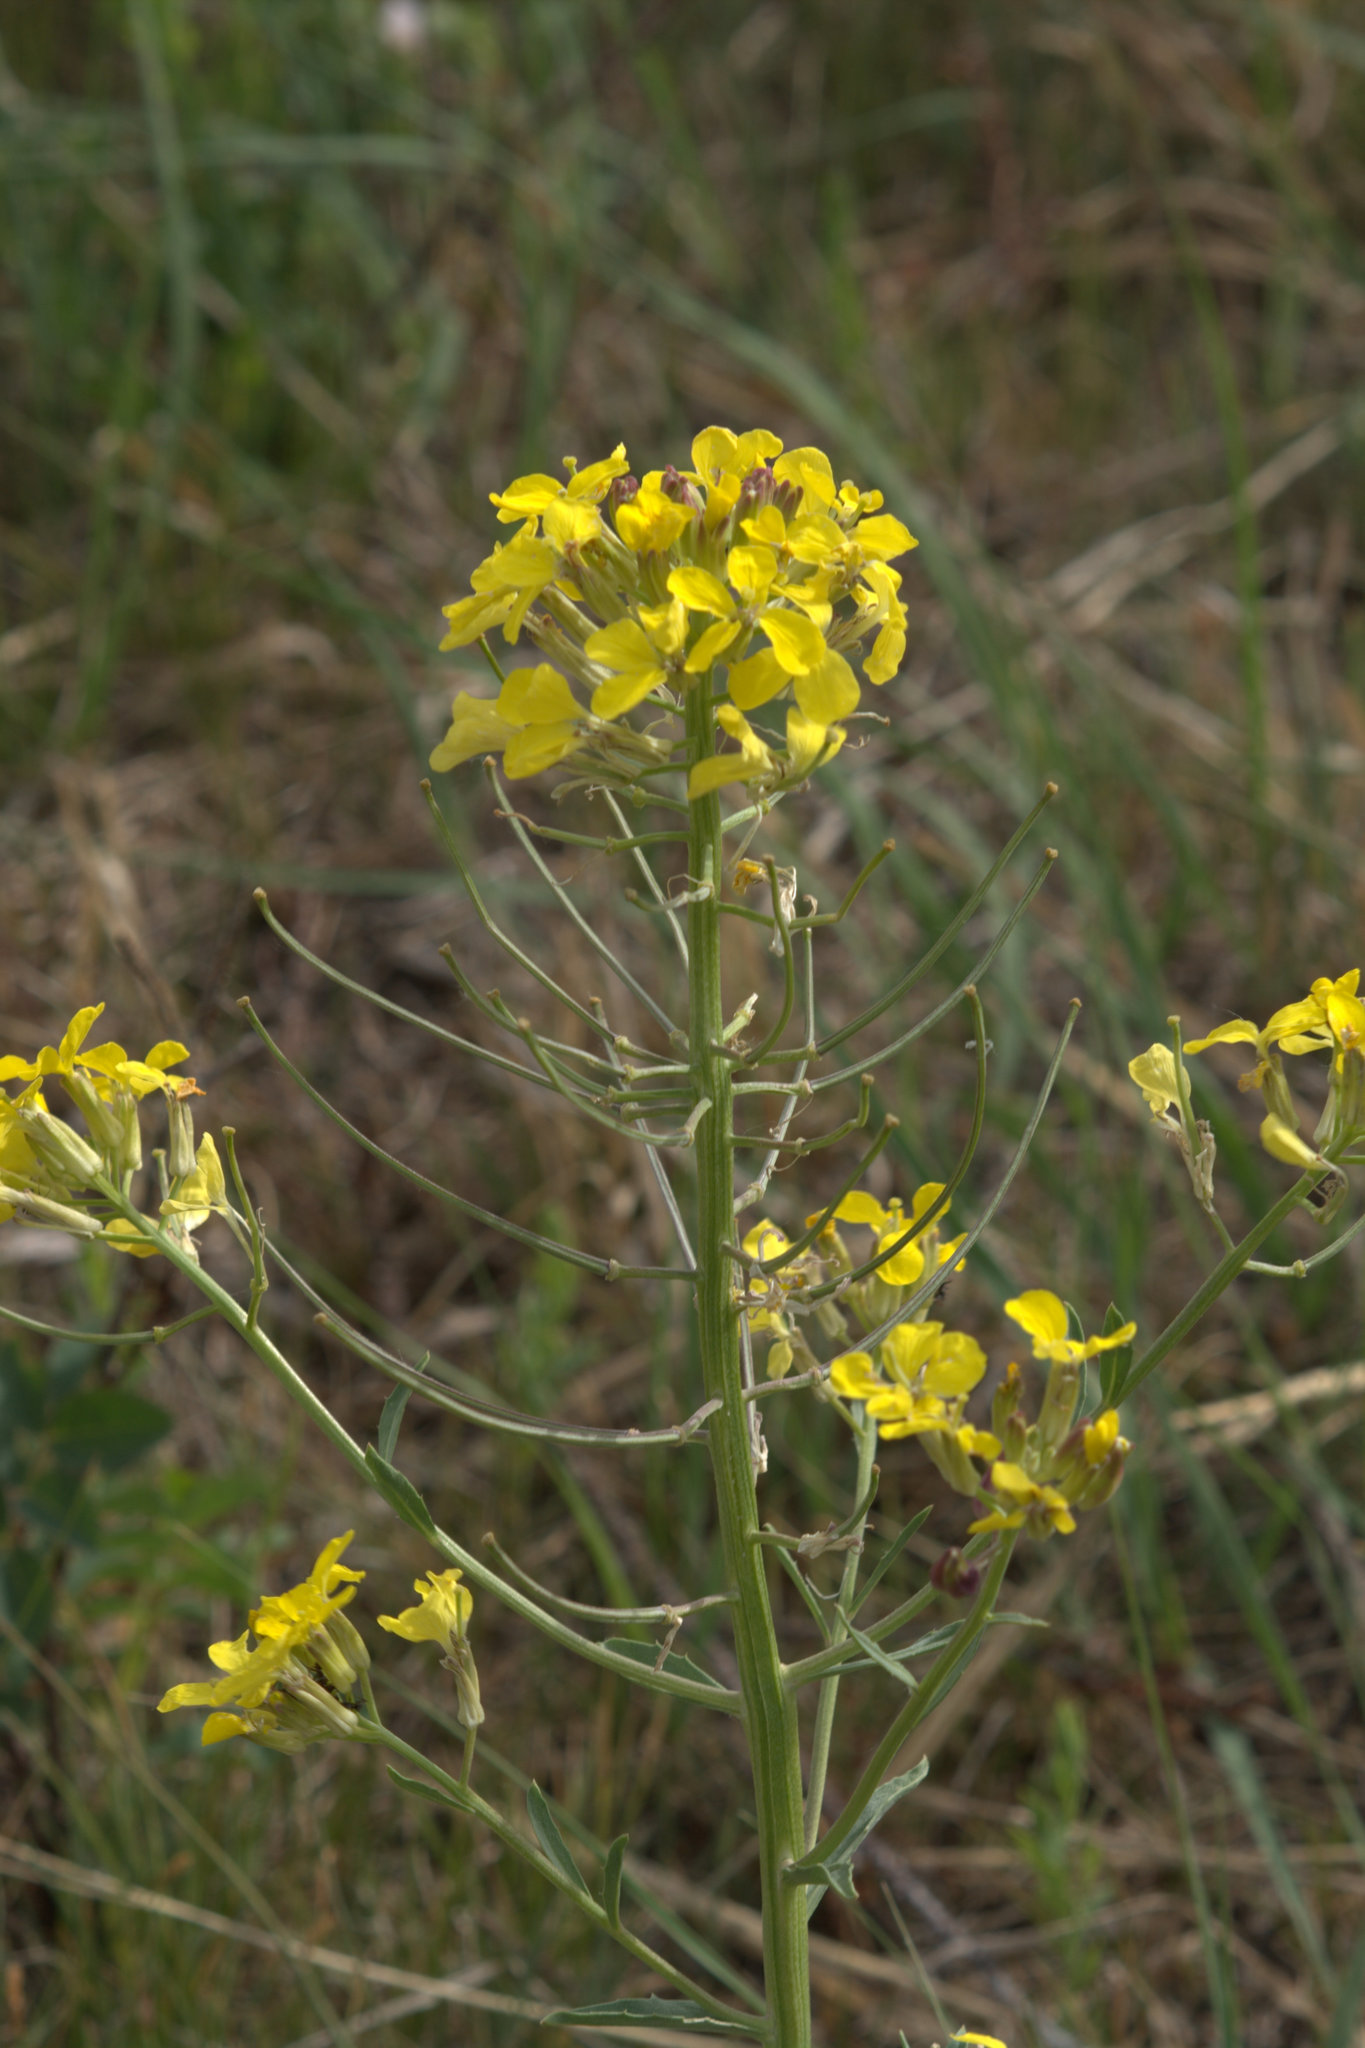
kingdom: Plantae
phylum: Tracheophyta
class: Magnoliopsida
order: Brassicales
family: Brassicaceae
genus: Erysimum
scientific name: Erysimum asperum
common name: Western wallflower
